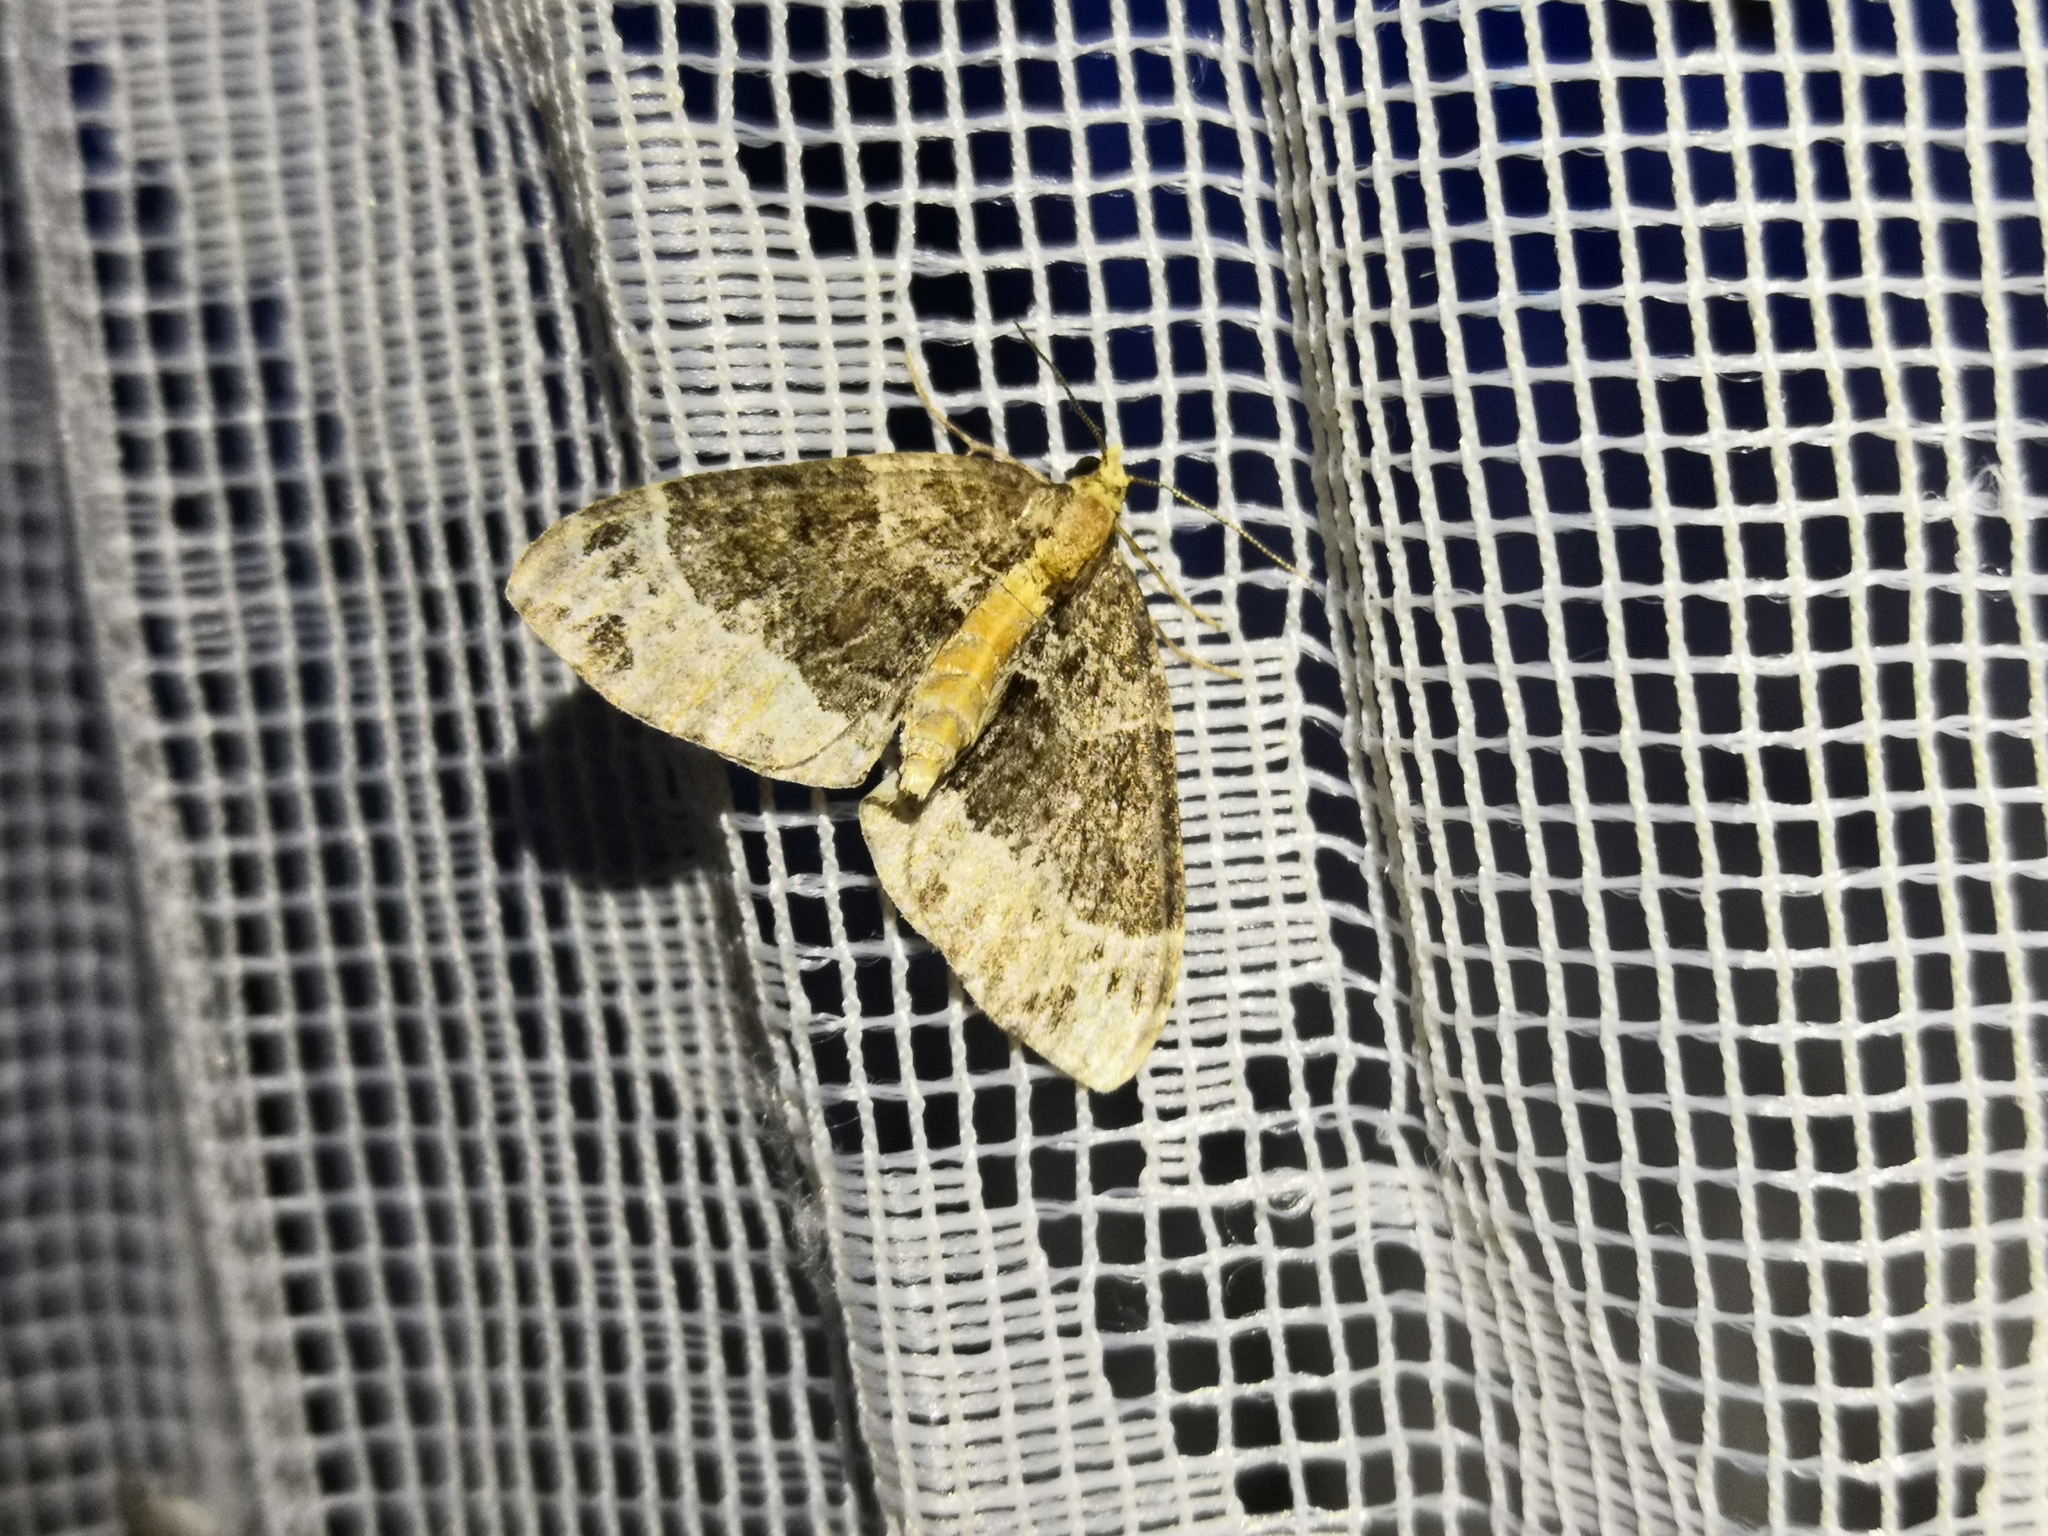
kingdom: Animalia
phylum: Arthropoda
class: Insecta
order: Lepidoptera
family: Geometridae
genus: Ecliptopera
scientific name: Ecliptopera capitata
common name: Yellow-headed phoenix
